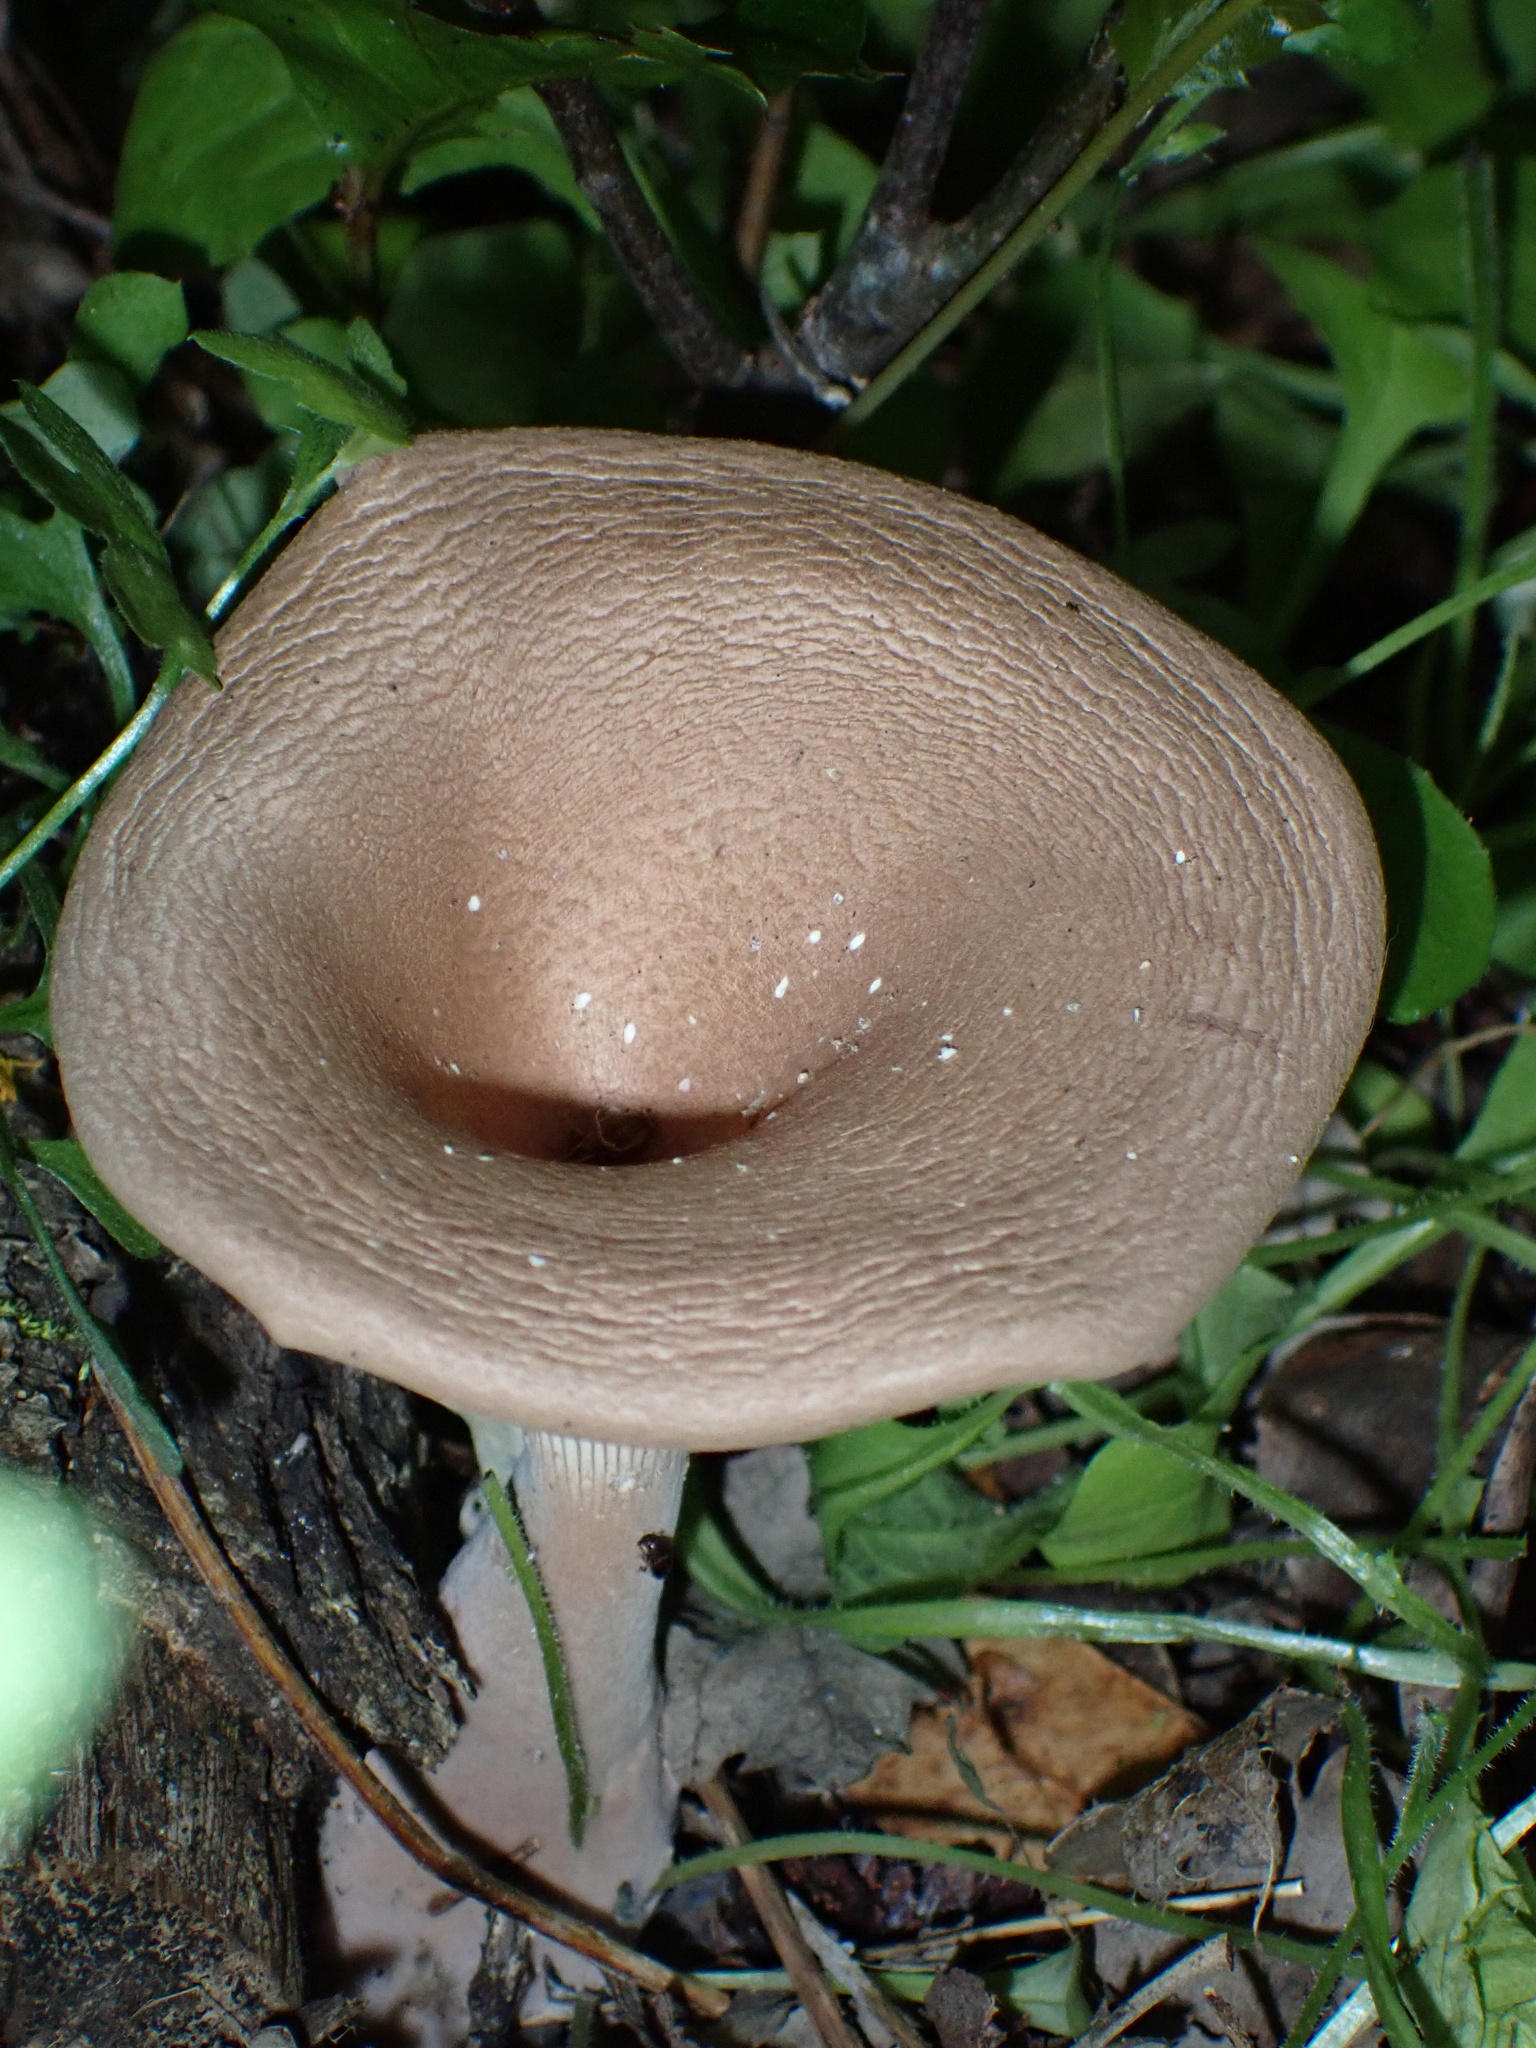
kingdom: Fungi
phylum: Basidiomycota
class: Agaricomycetes
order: Polyporales
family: Panaceae
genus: Panus
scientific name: Panus conchatus
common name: Lilac oysterling
